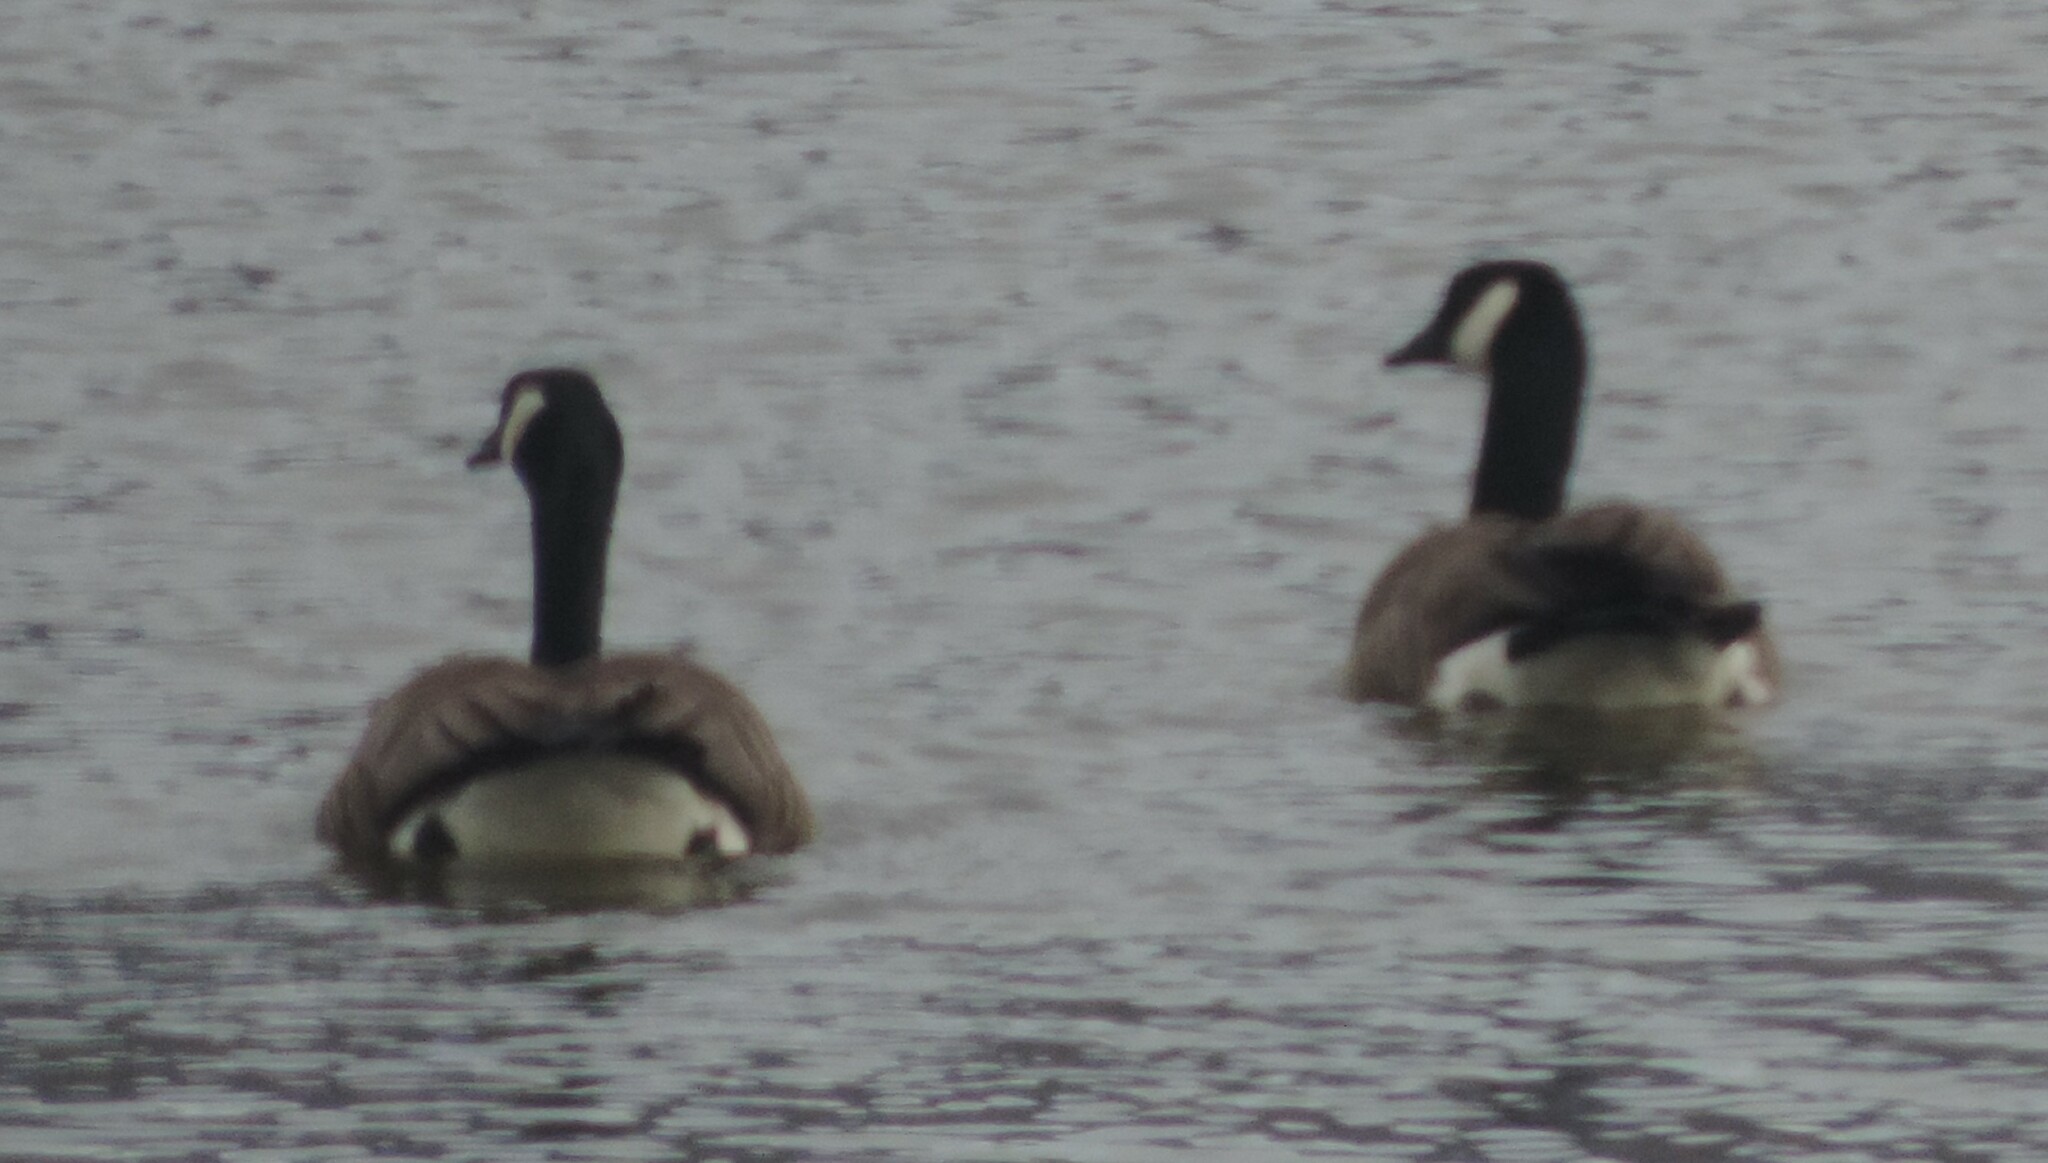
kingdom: Animalia
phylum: Chordata
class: Aves
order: Anseriformes
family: Anatidae
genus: Branta
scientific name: Branta canadensis
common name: Canada goose
